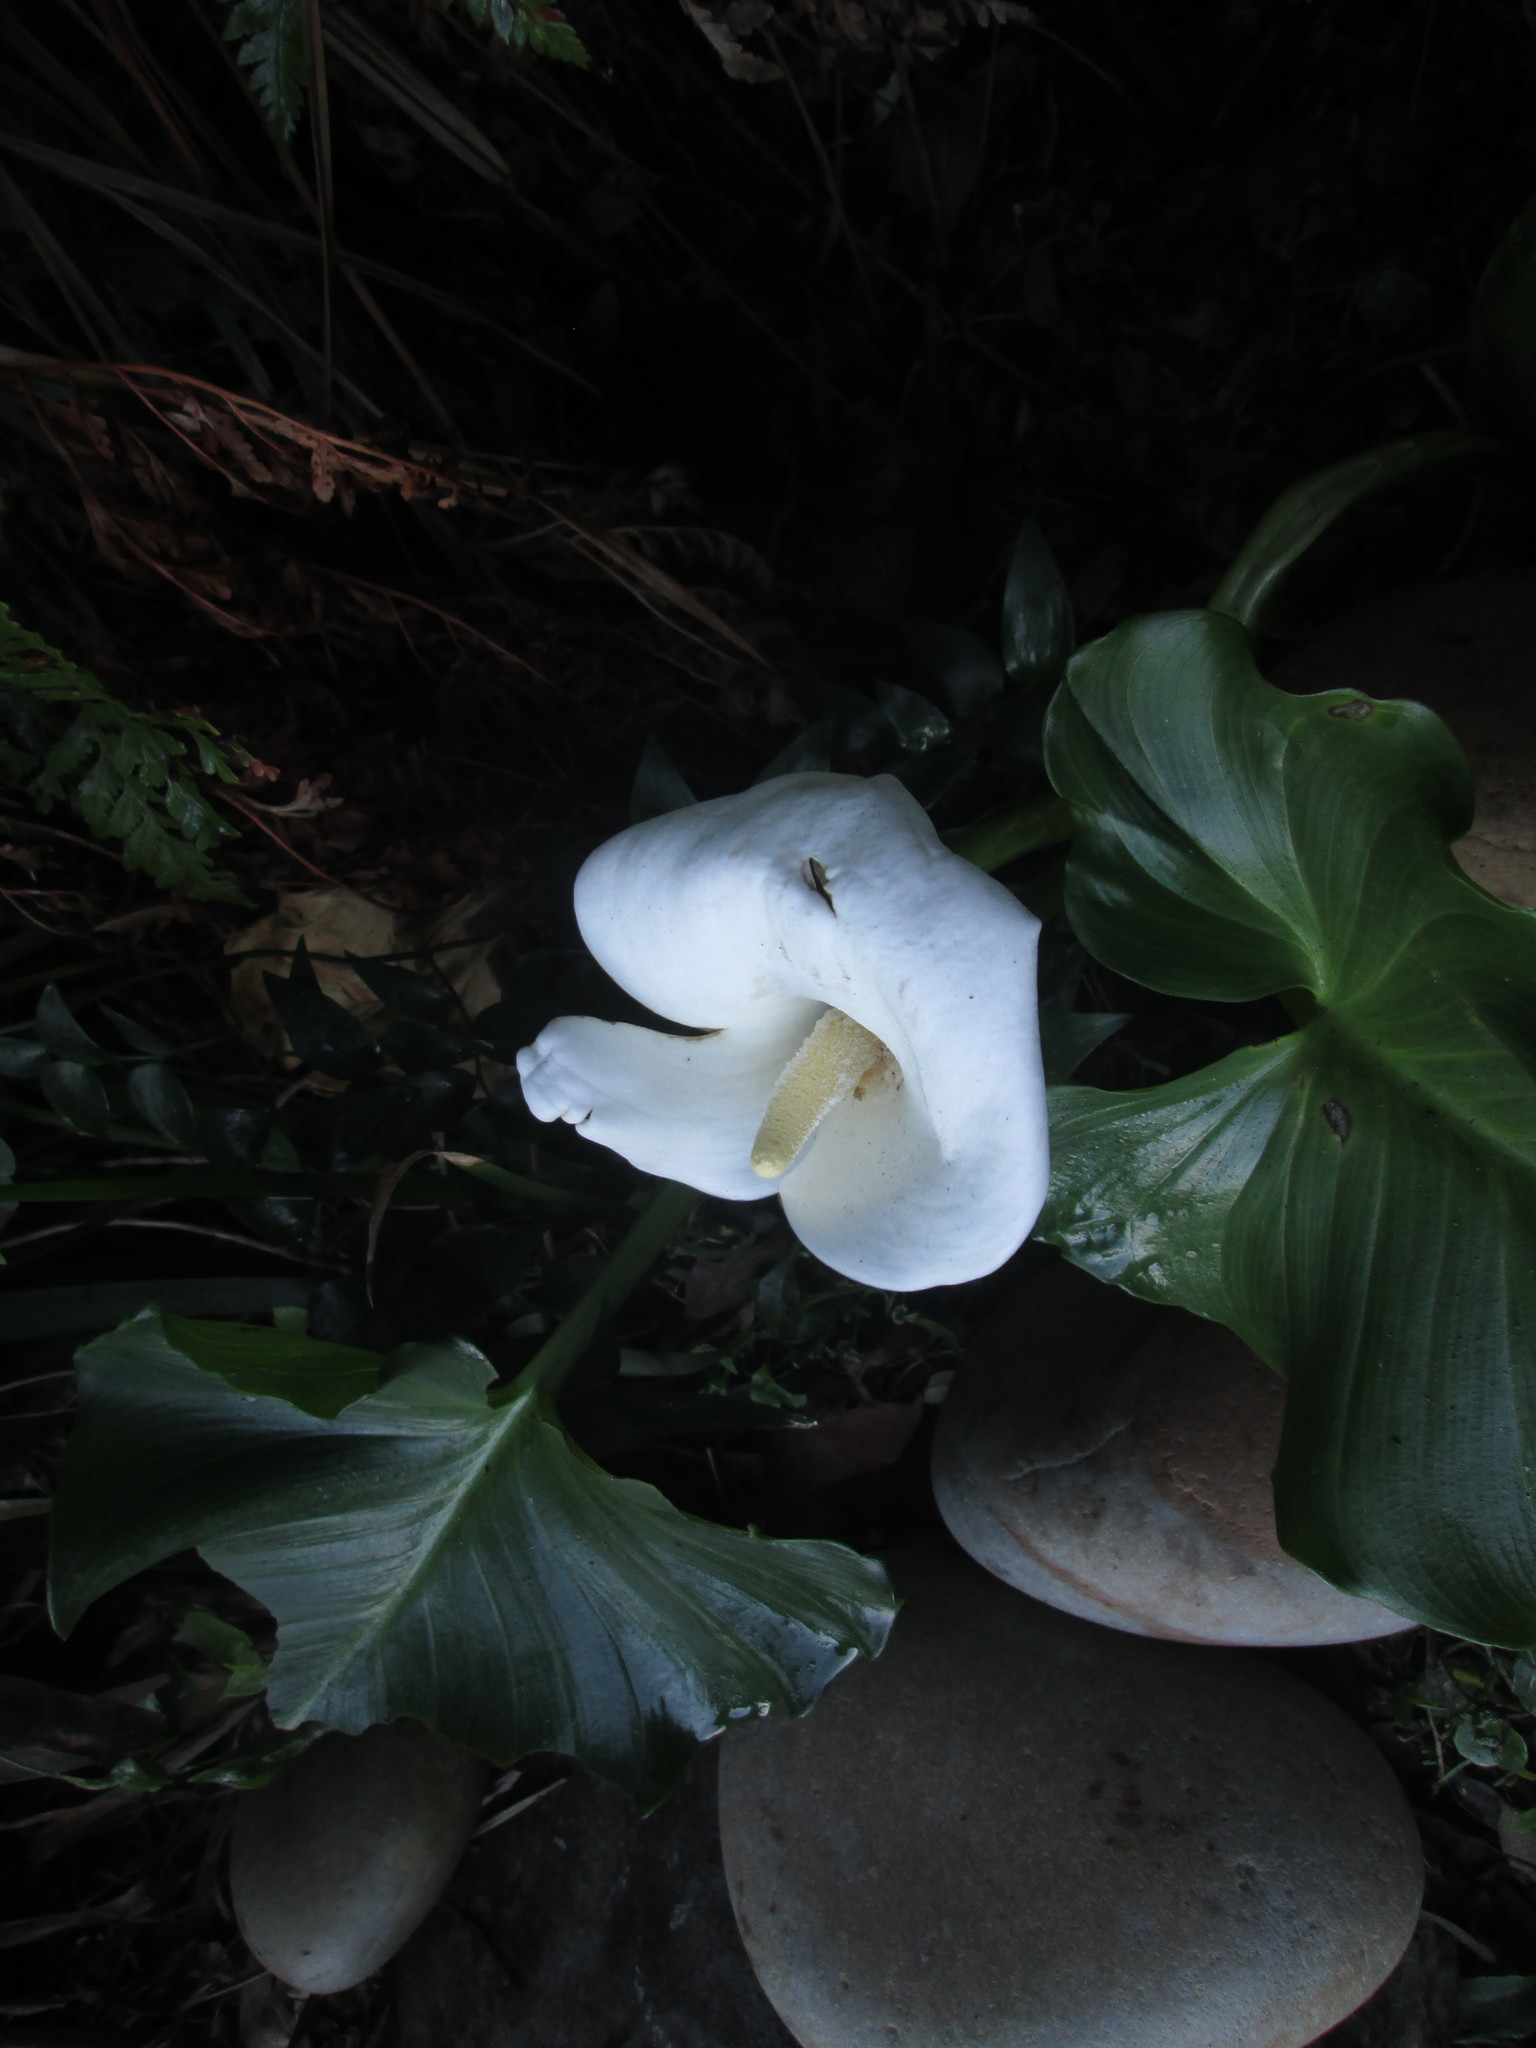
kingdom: Plantae
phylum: Tracheophyta
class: Liliopsida
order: Alismatales
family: Araceae
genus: Zantedeschia
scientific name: Zantedeschia aethiopica
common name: Altar-lily
